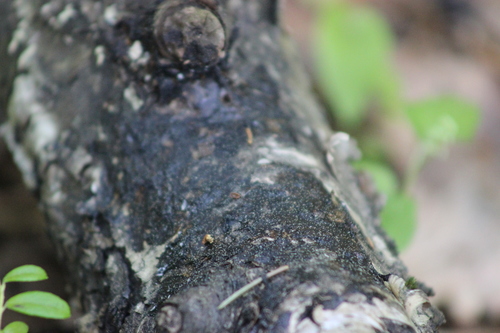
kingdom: Fungi
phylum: Basidiomycota
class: Agaricomycetes
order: Auriculariales
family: Auriculariaceae
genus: Exidia
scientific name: Exidia
